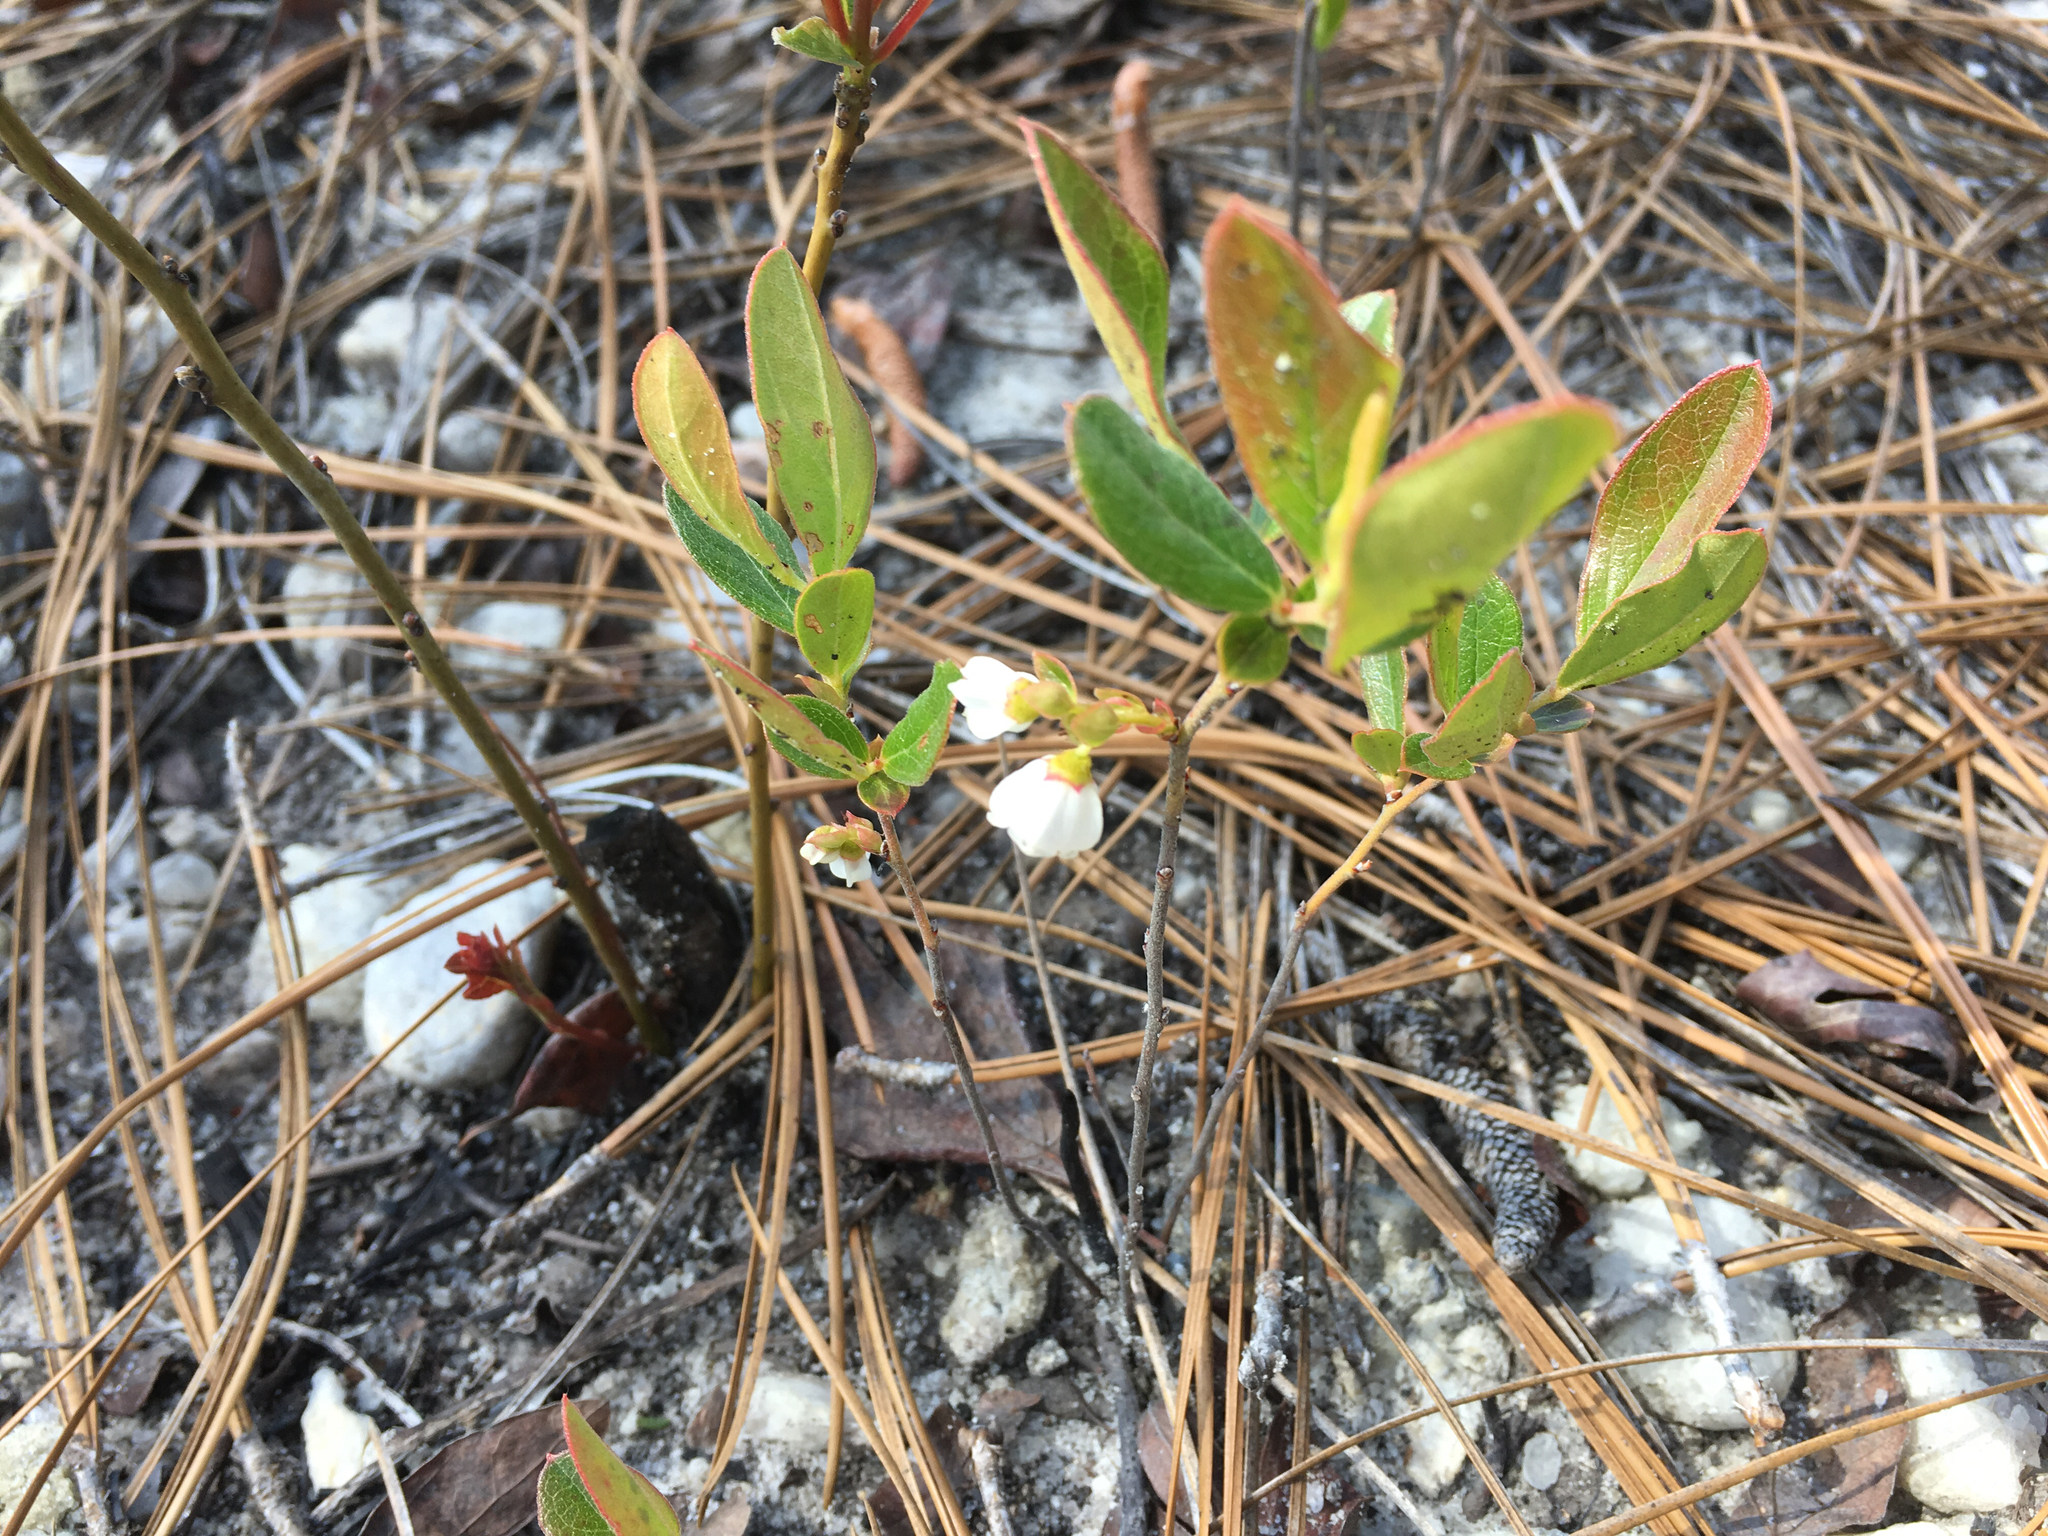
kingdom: Plantae
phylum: Tracheophyta
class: Magnoliopsida
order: Ericales
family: Ericaceae
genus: Gaylussacia
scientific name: Gaylussacia dumosa
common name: Dwarf huckleberry
